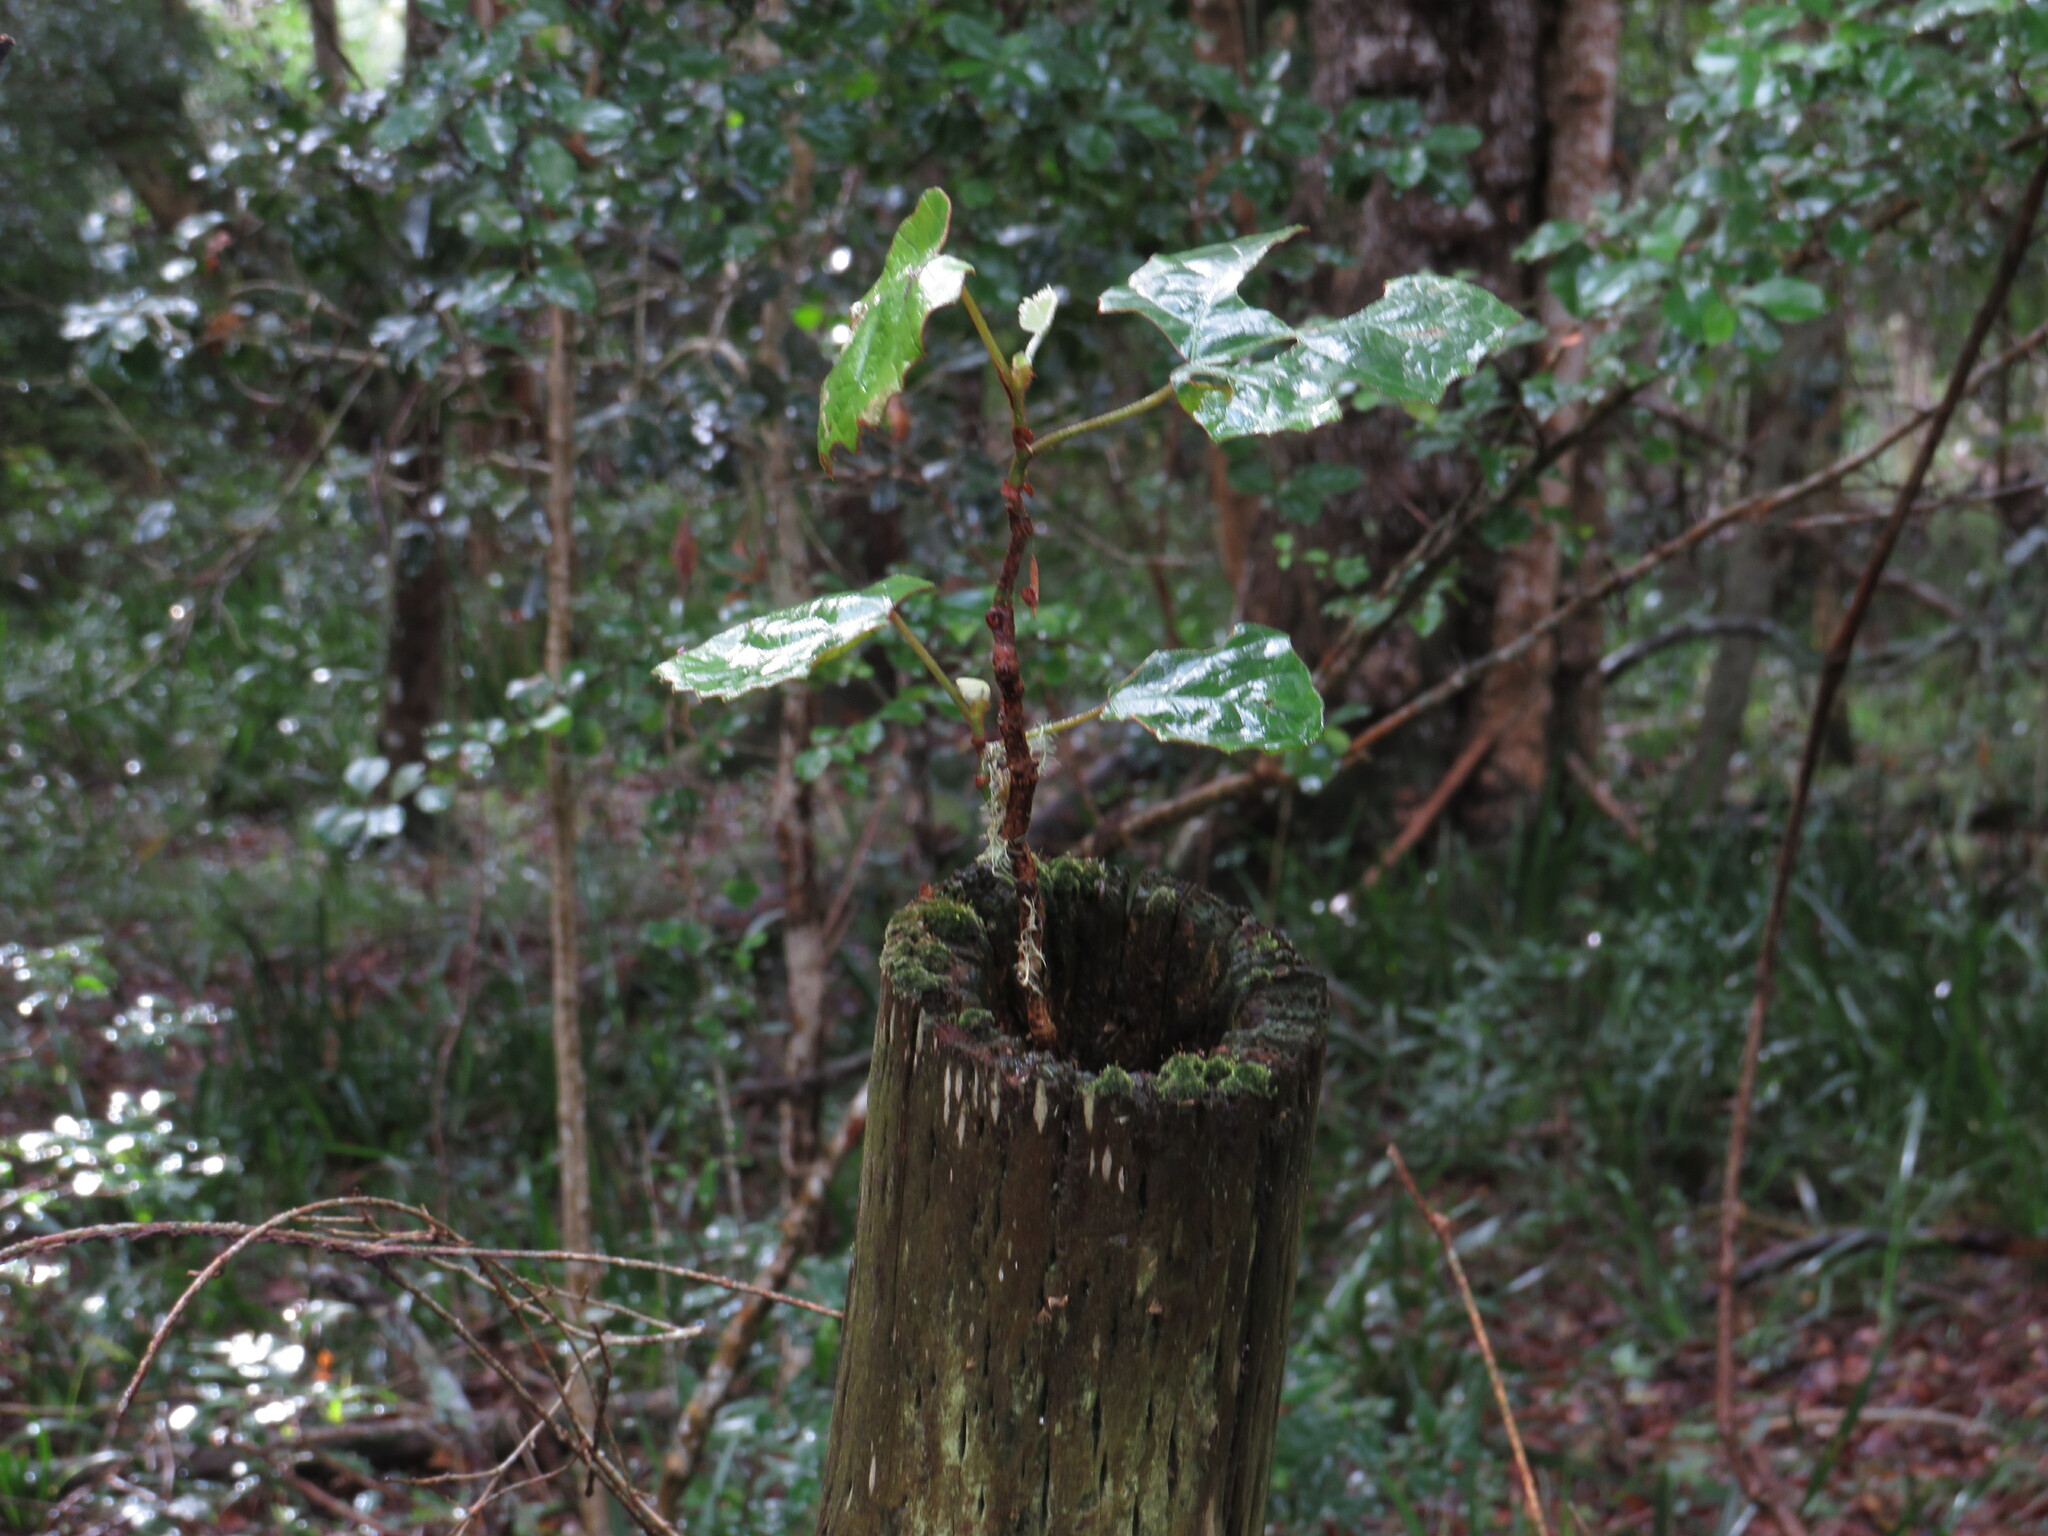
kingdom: Plantae
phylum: Tracheophyta
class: Magnoliopsida
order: Vitales
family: Vitaceae
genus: Rhoicissus
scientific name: Rhoicissus tomentosa
